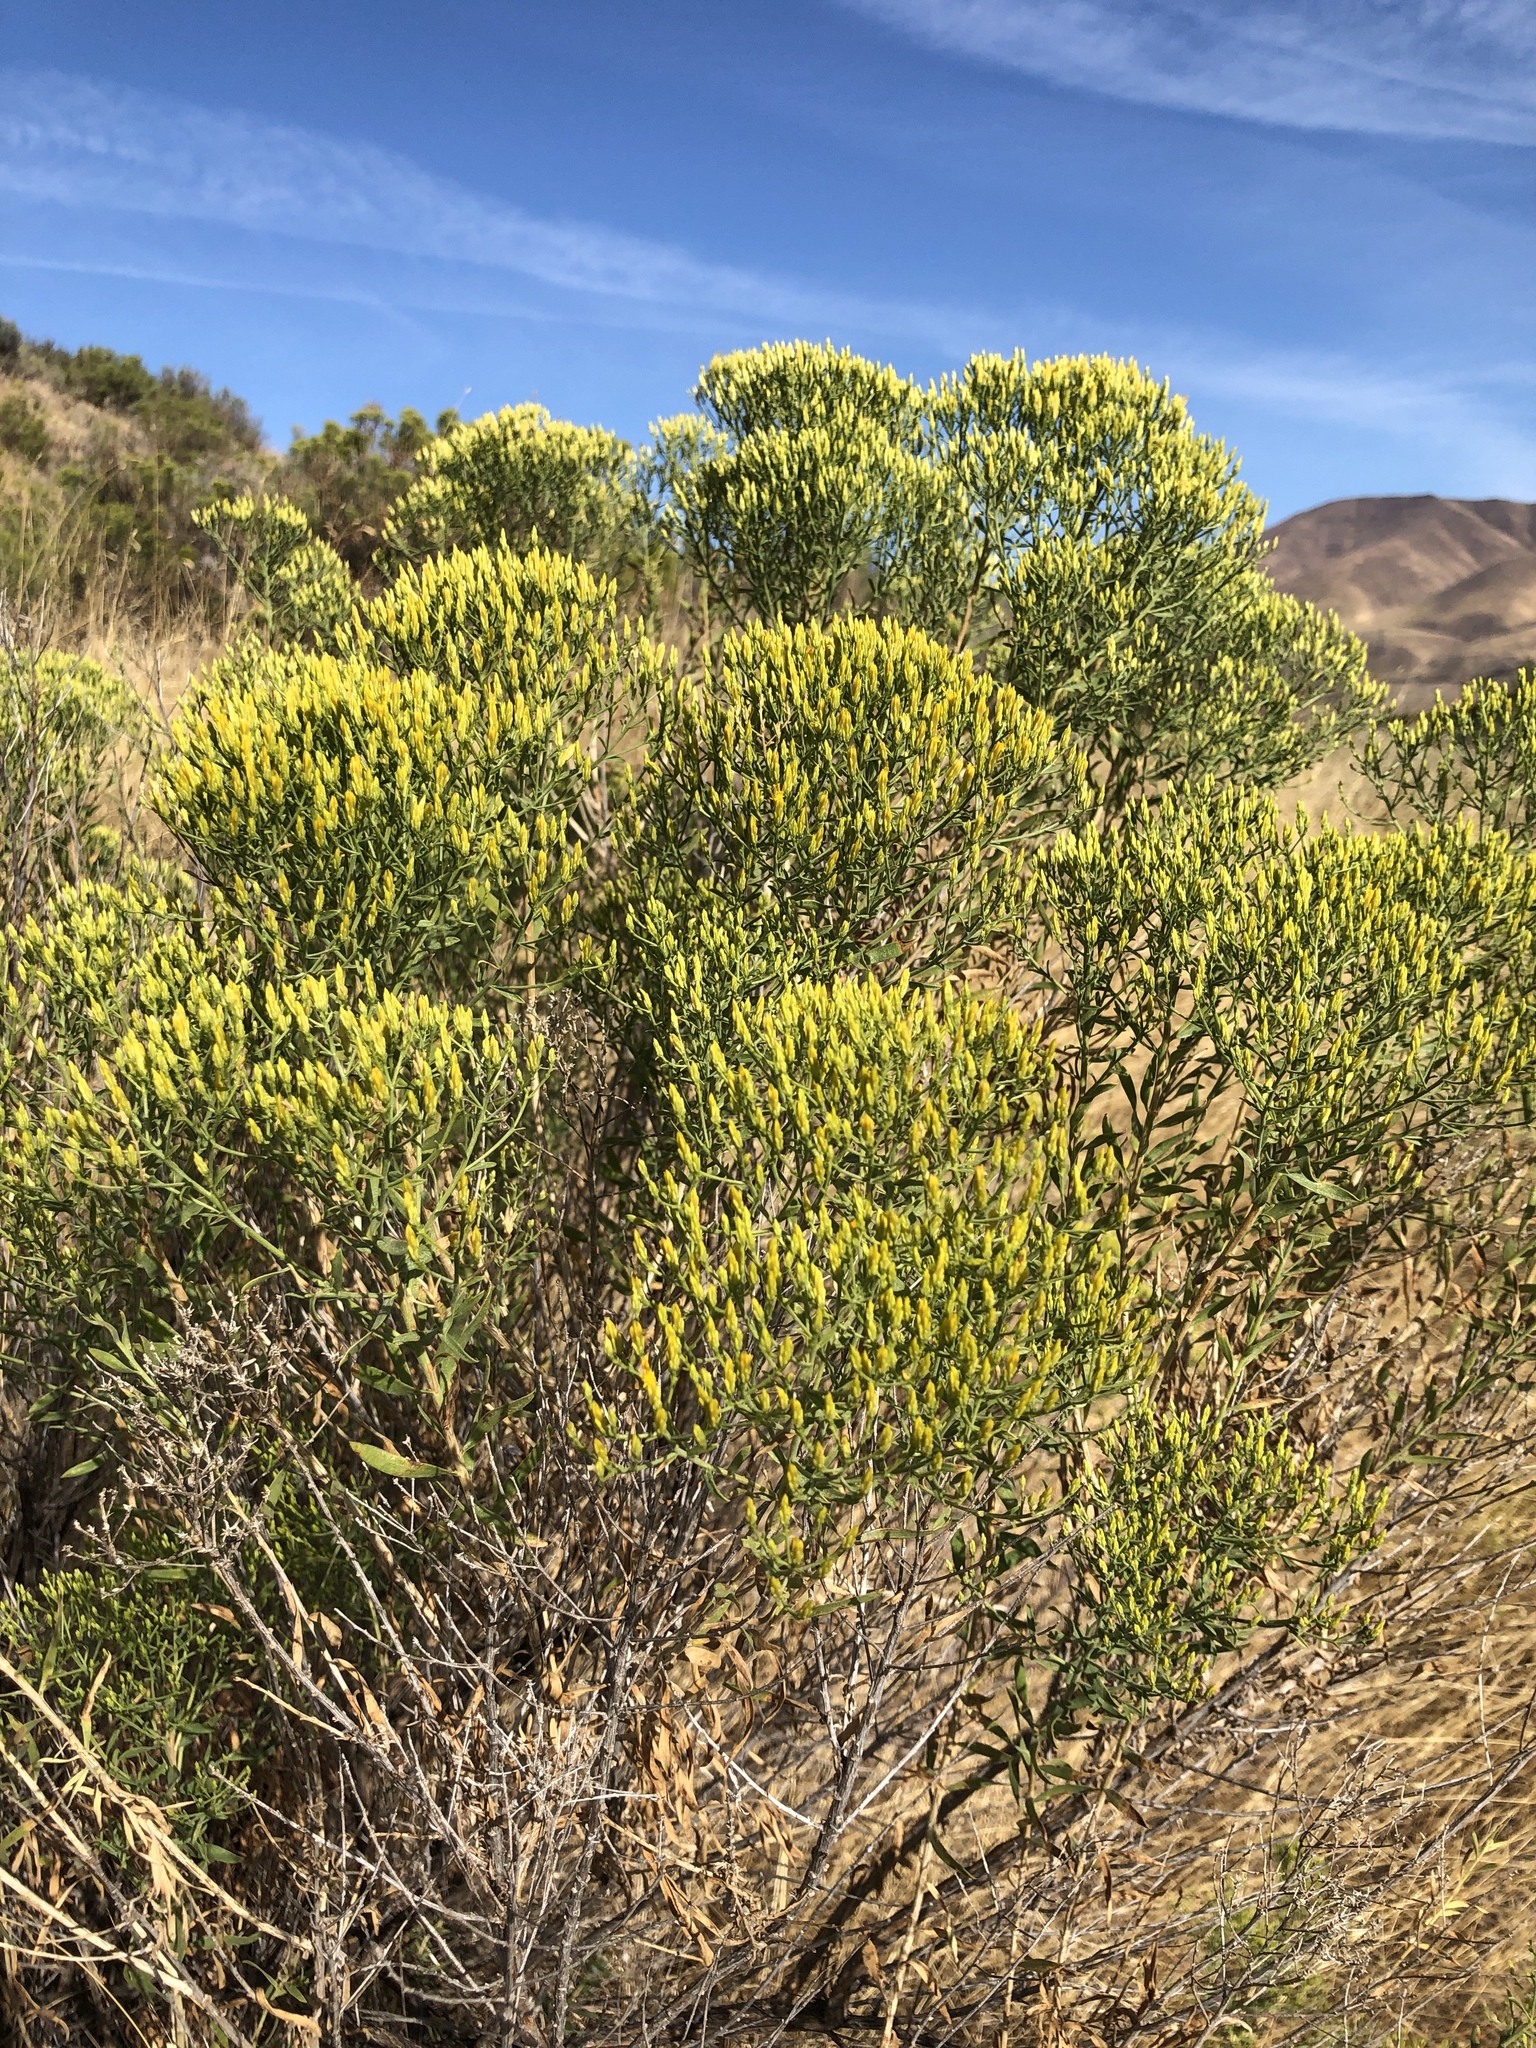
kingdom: Plantae
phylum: Tracheophyta
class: Magnoliopsida
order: Asterales
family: Asteraceae
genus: Chrysothamnus
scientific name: Chrysothamnus viscidiflorus
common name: Yellow rabbitbrush
